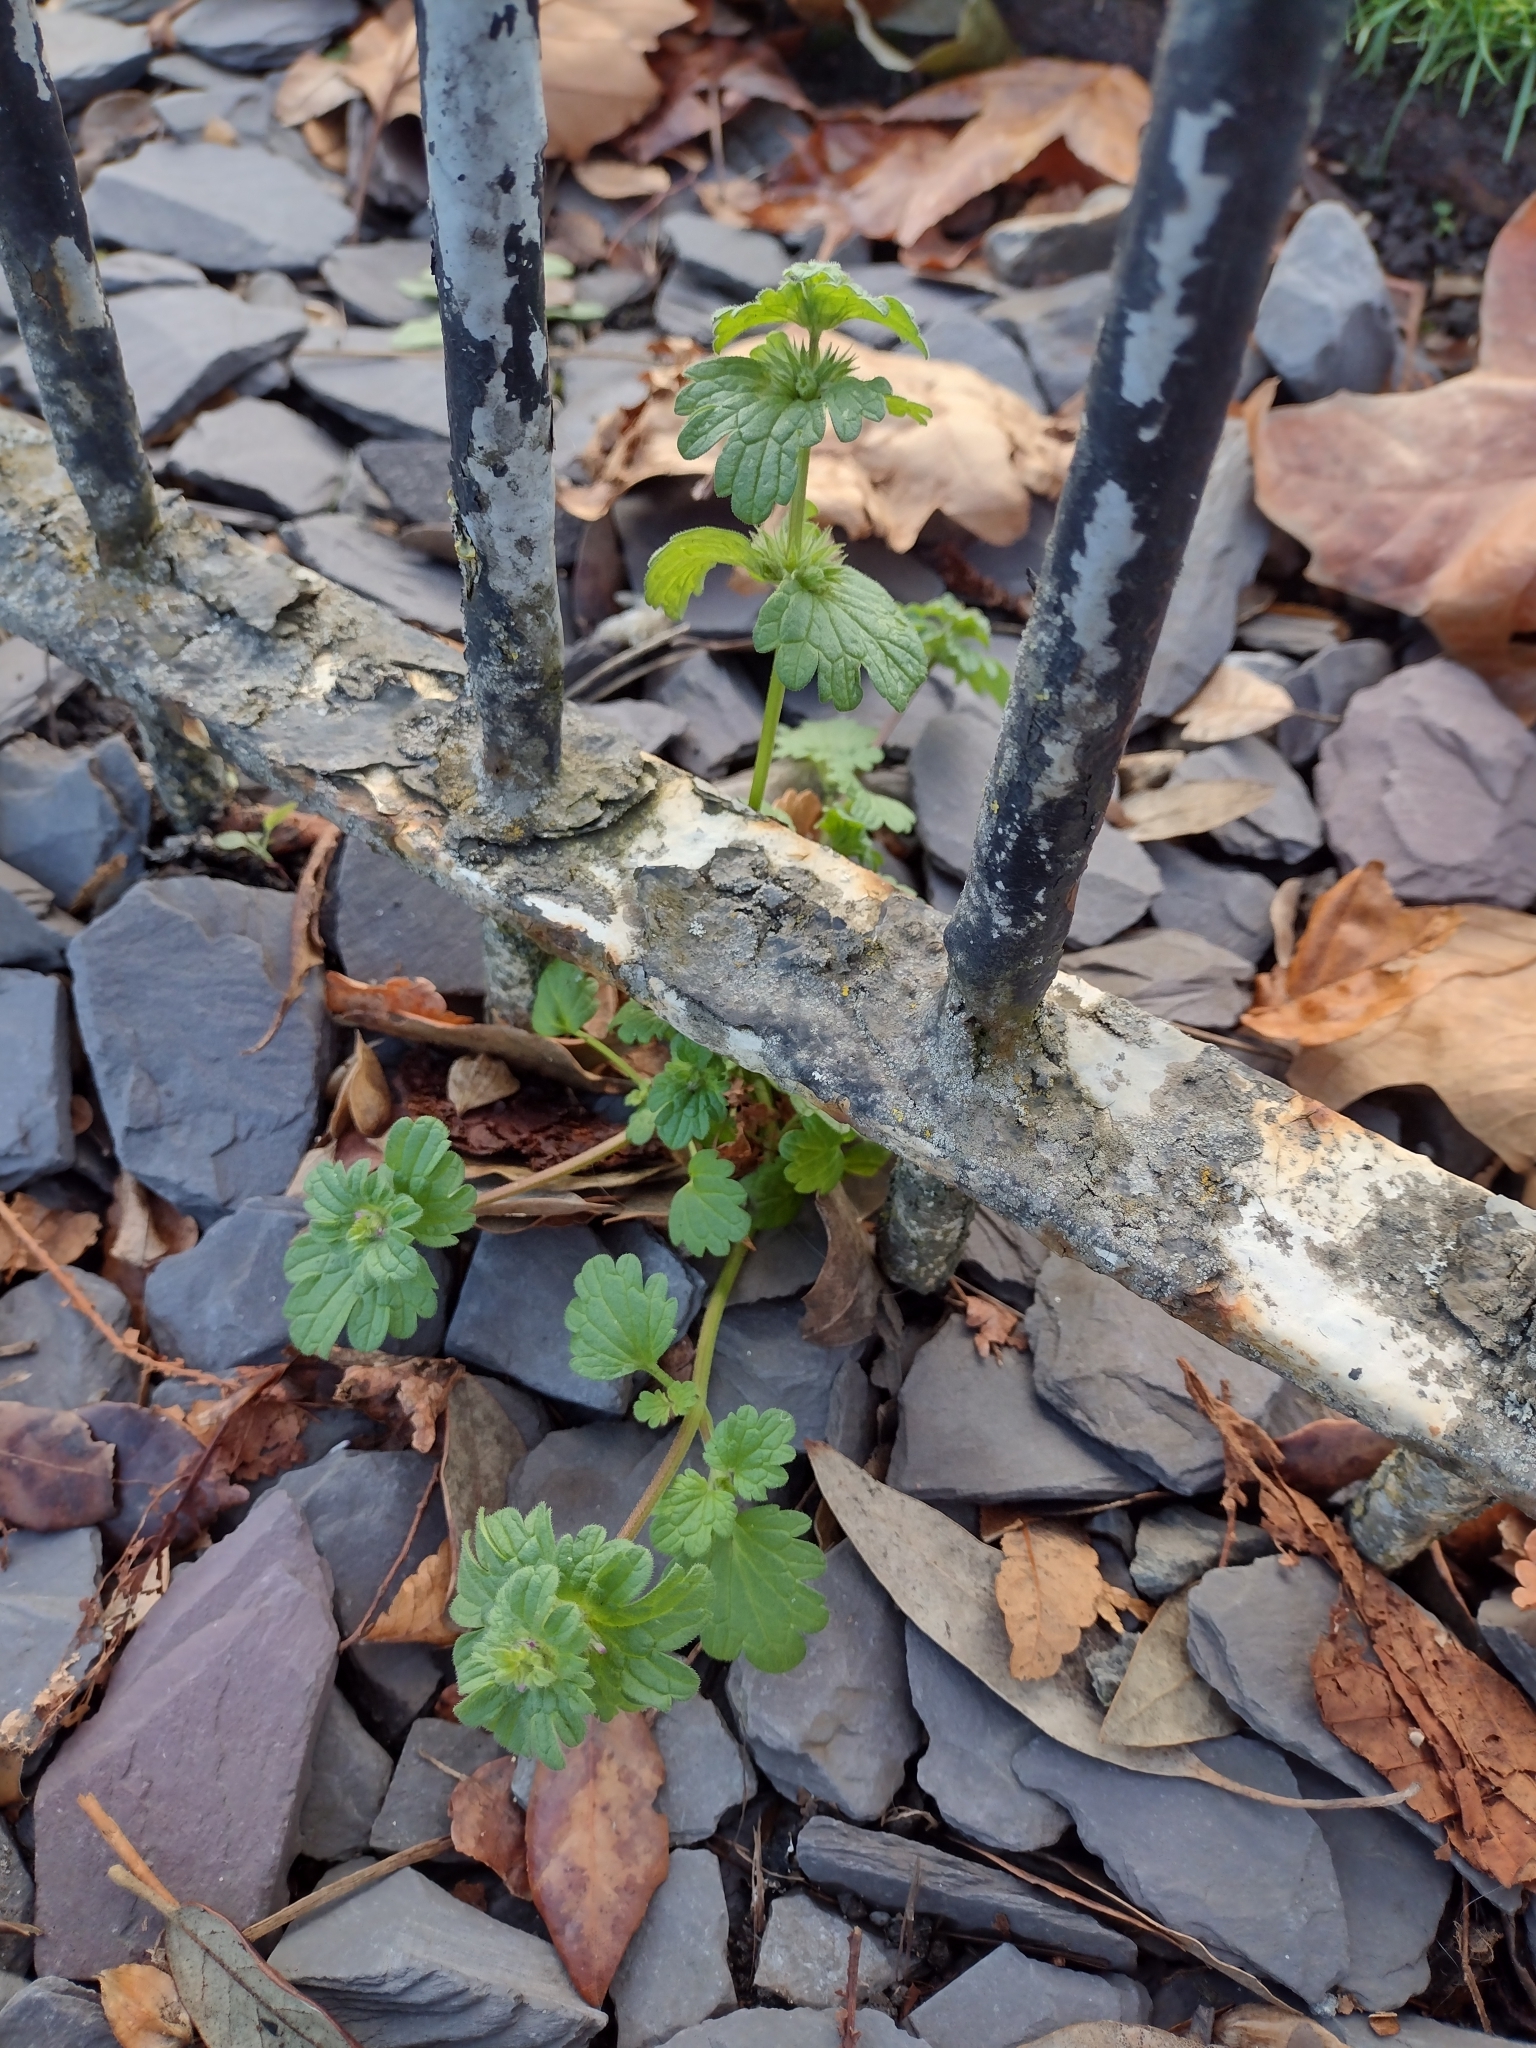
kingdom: Plantae
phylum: Tracheophyta
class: Magnoliopsida
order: Lamiales
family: Lamiaceae
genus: Lamium
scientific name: Lamium amplexicaule
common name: Henbit dead-nettle
